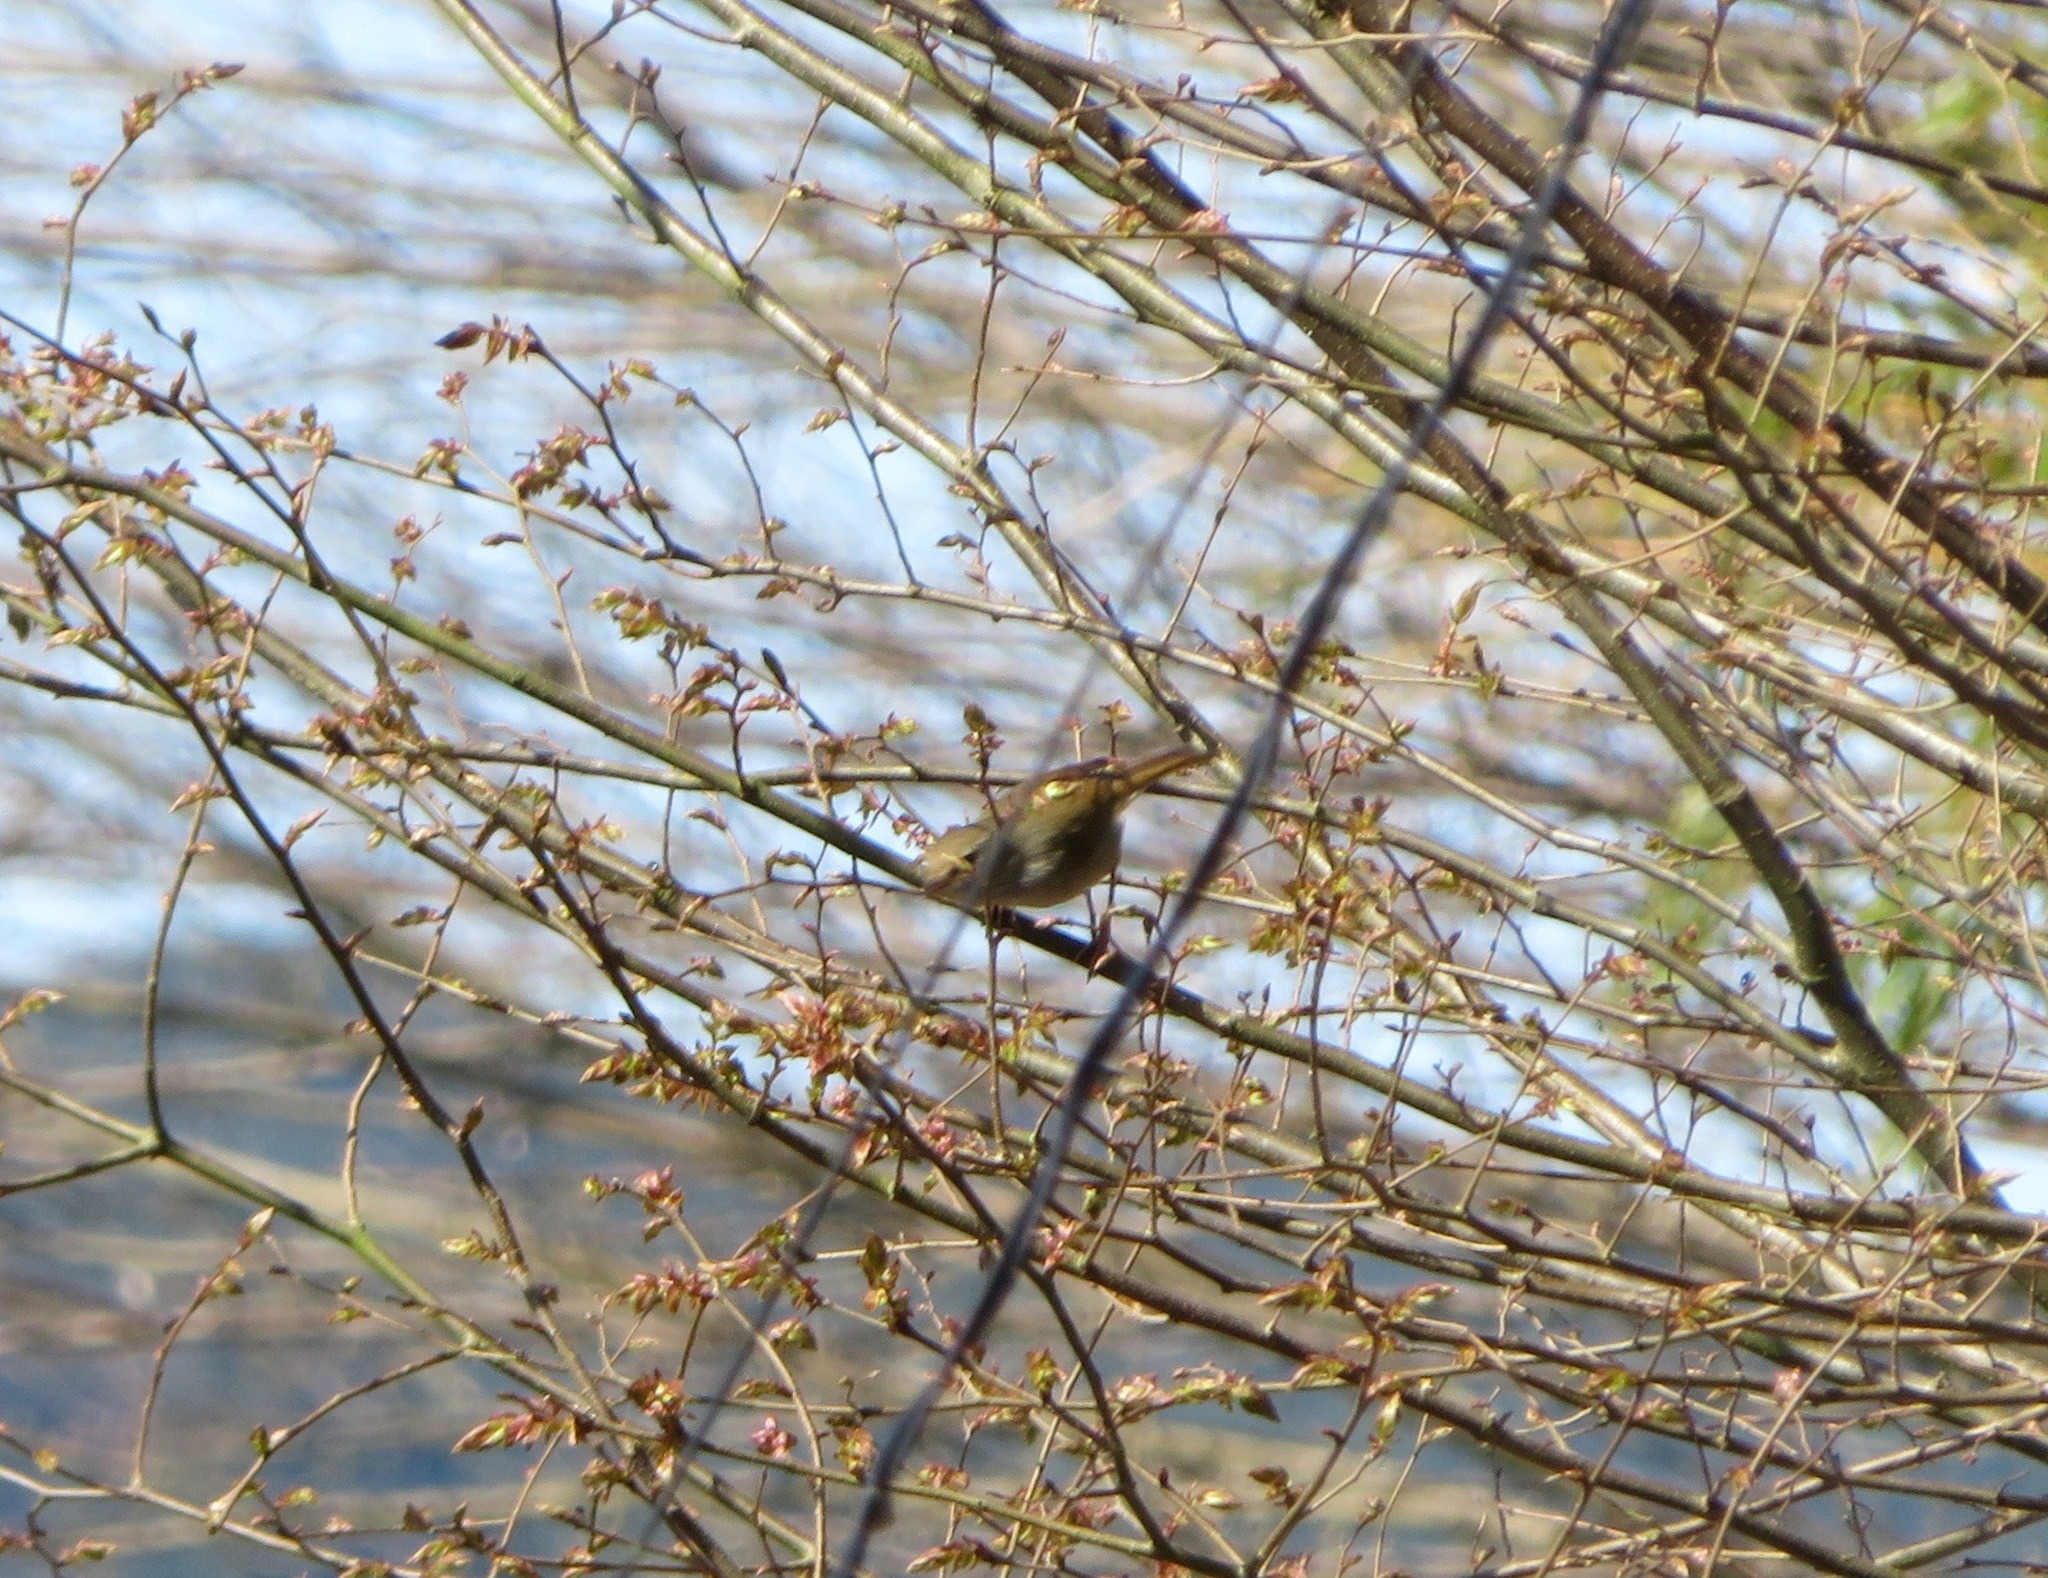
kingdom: Animalia
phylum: Chordata
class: Aves
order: Passeriformes
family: Cettiidae
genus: Horornis
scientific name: Horornis diphone
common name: Japanese bush warbler
